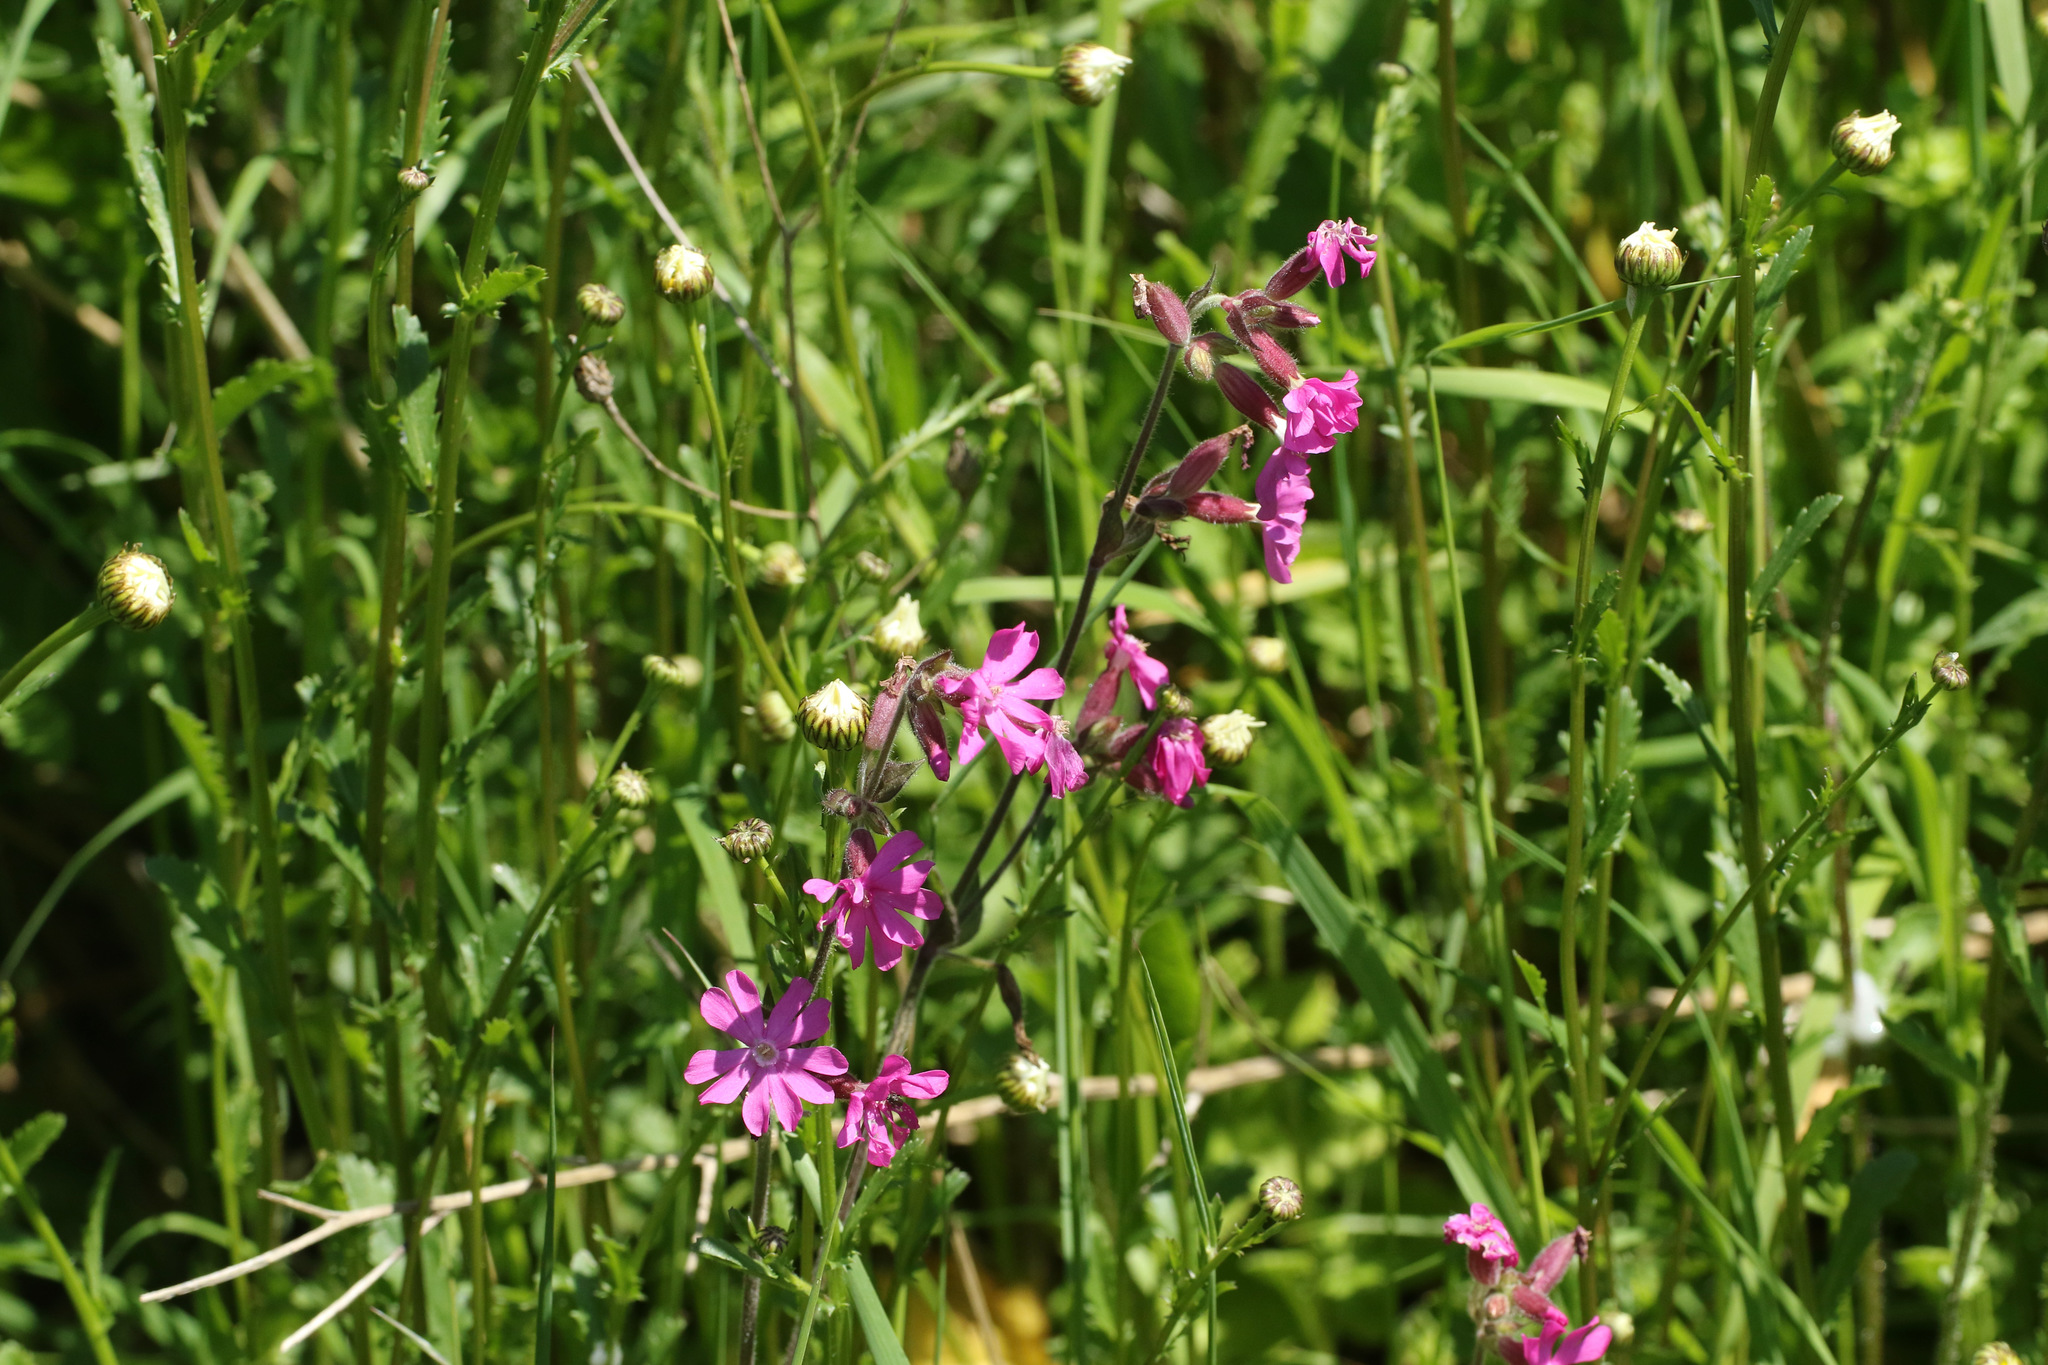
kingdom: Plantae
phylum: Tracheophyta
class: Magnoliopsida
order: Caryophyllales
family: Caryophyllaceae
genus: Silene
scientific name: Silene dioica
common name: Red campion
